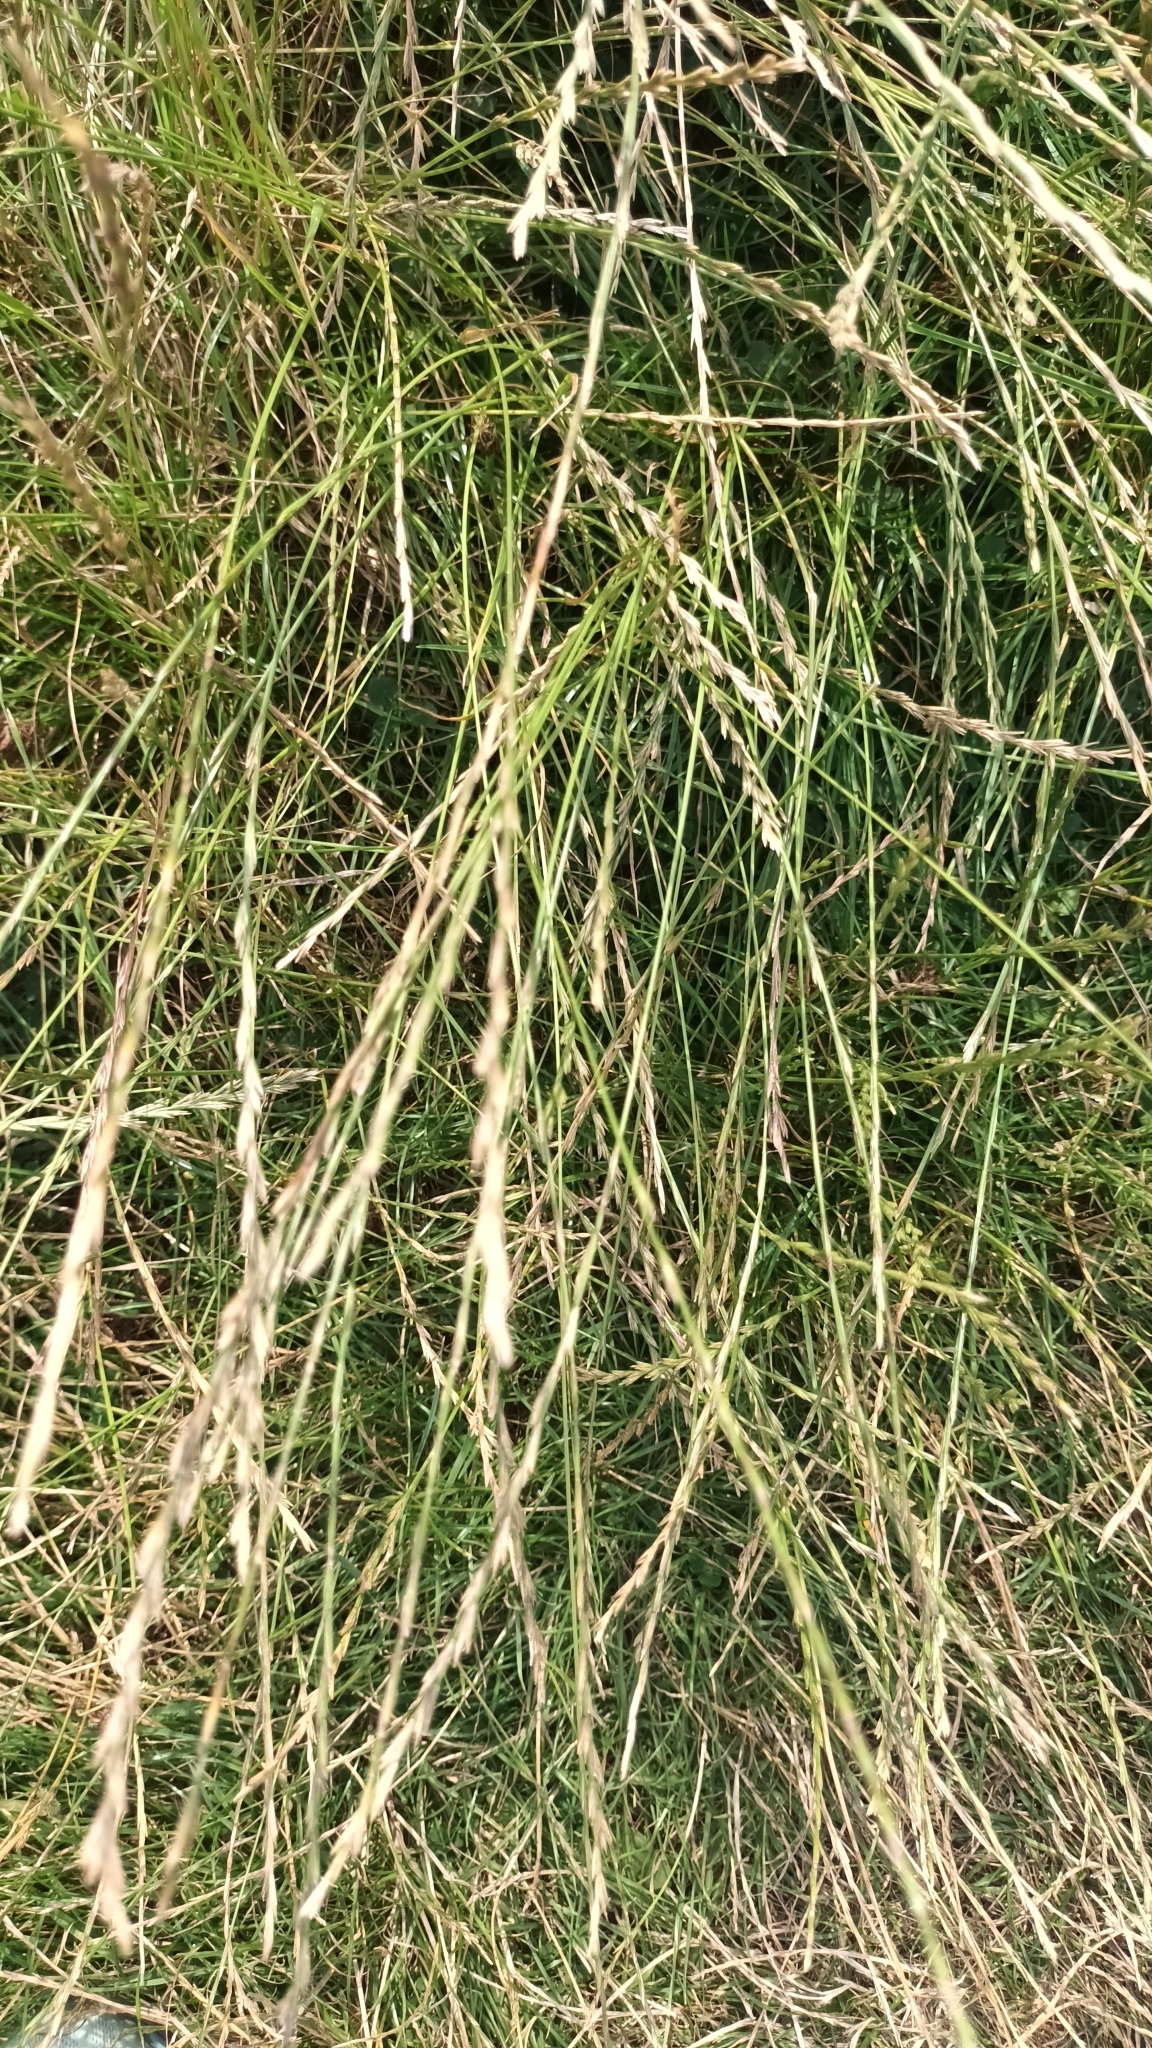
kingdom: Plantae
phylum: Tracheophyta
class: Liliopsida
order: Poales
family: Poaceae
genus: Lolium
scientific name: Lolium perenne
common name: Perennial ryegrass
